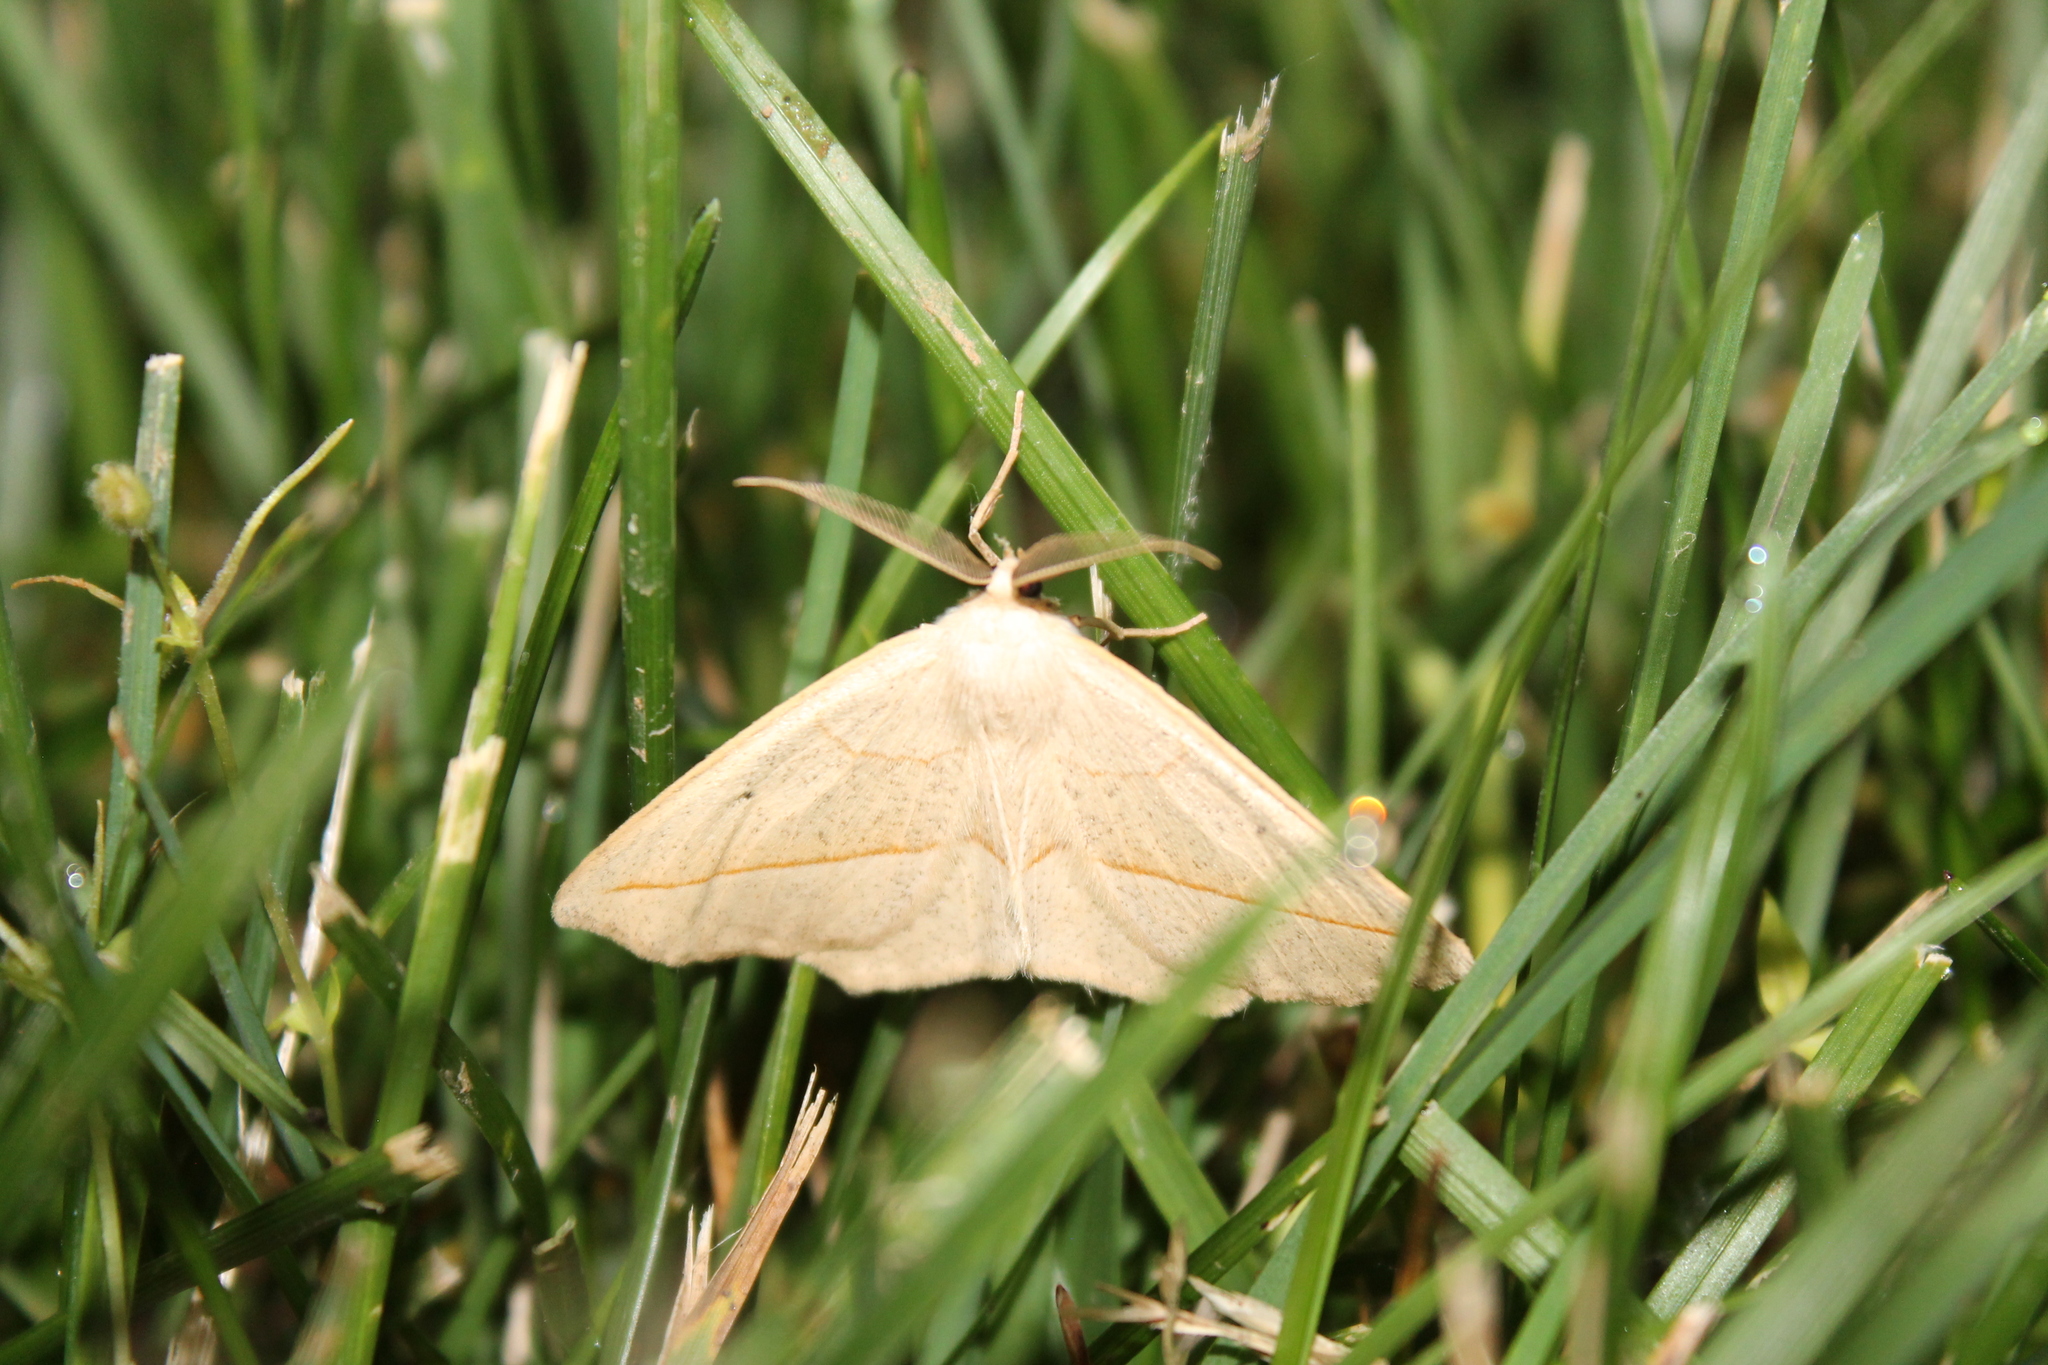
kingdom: Animalia
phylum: Arthropoda
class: Insecta
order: Lepidoptera
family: Geometridae
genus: Eusarca
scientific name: Eusarca confusaria
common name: Confused eusarca
